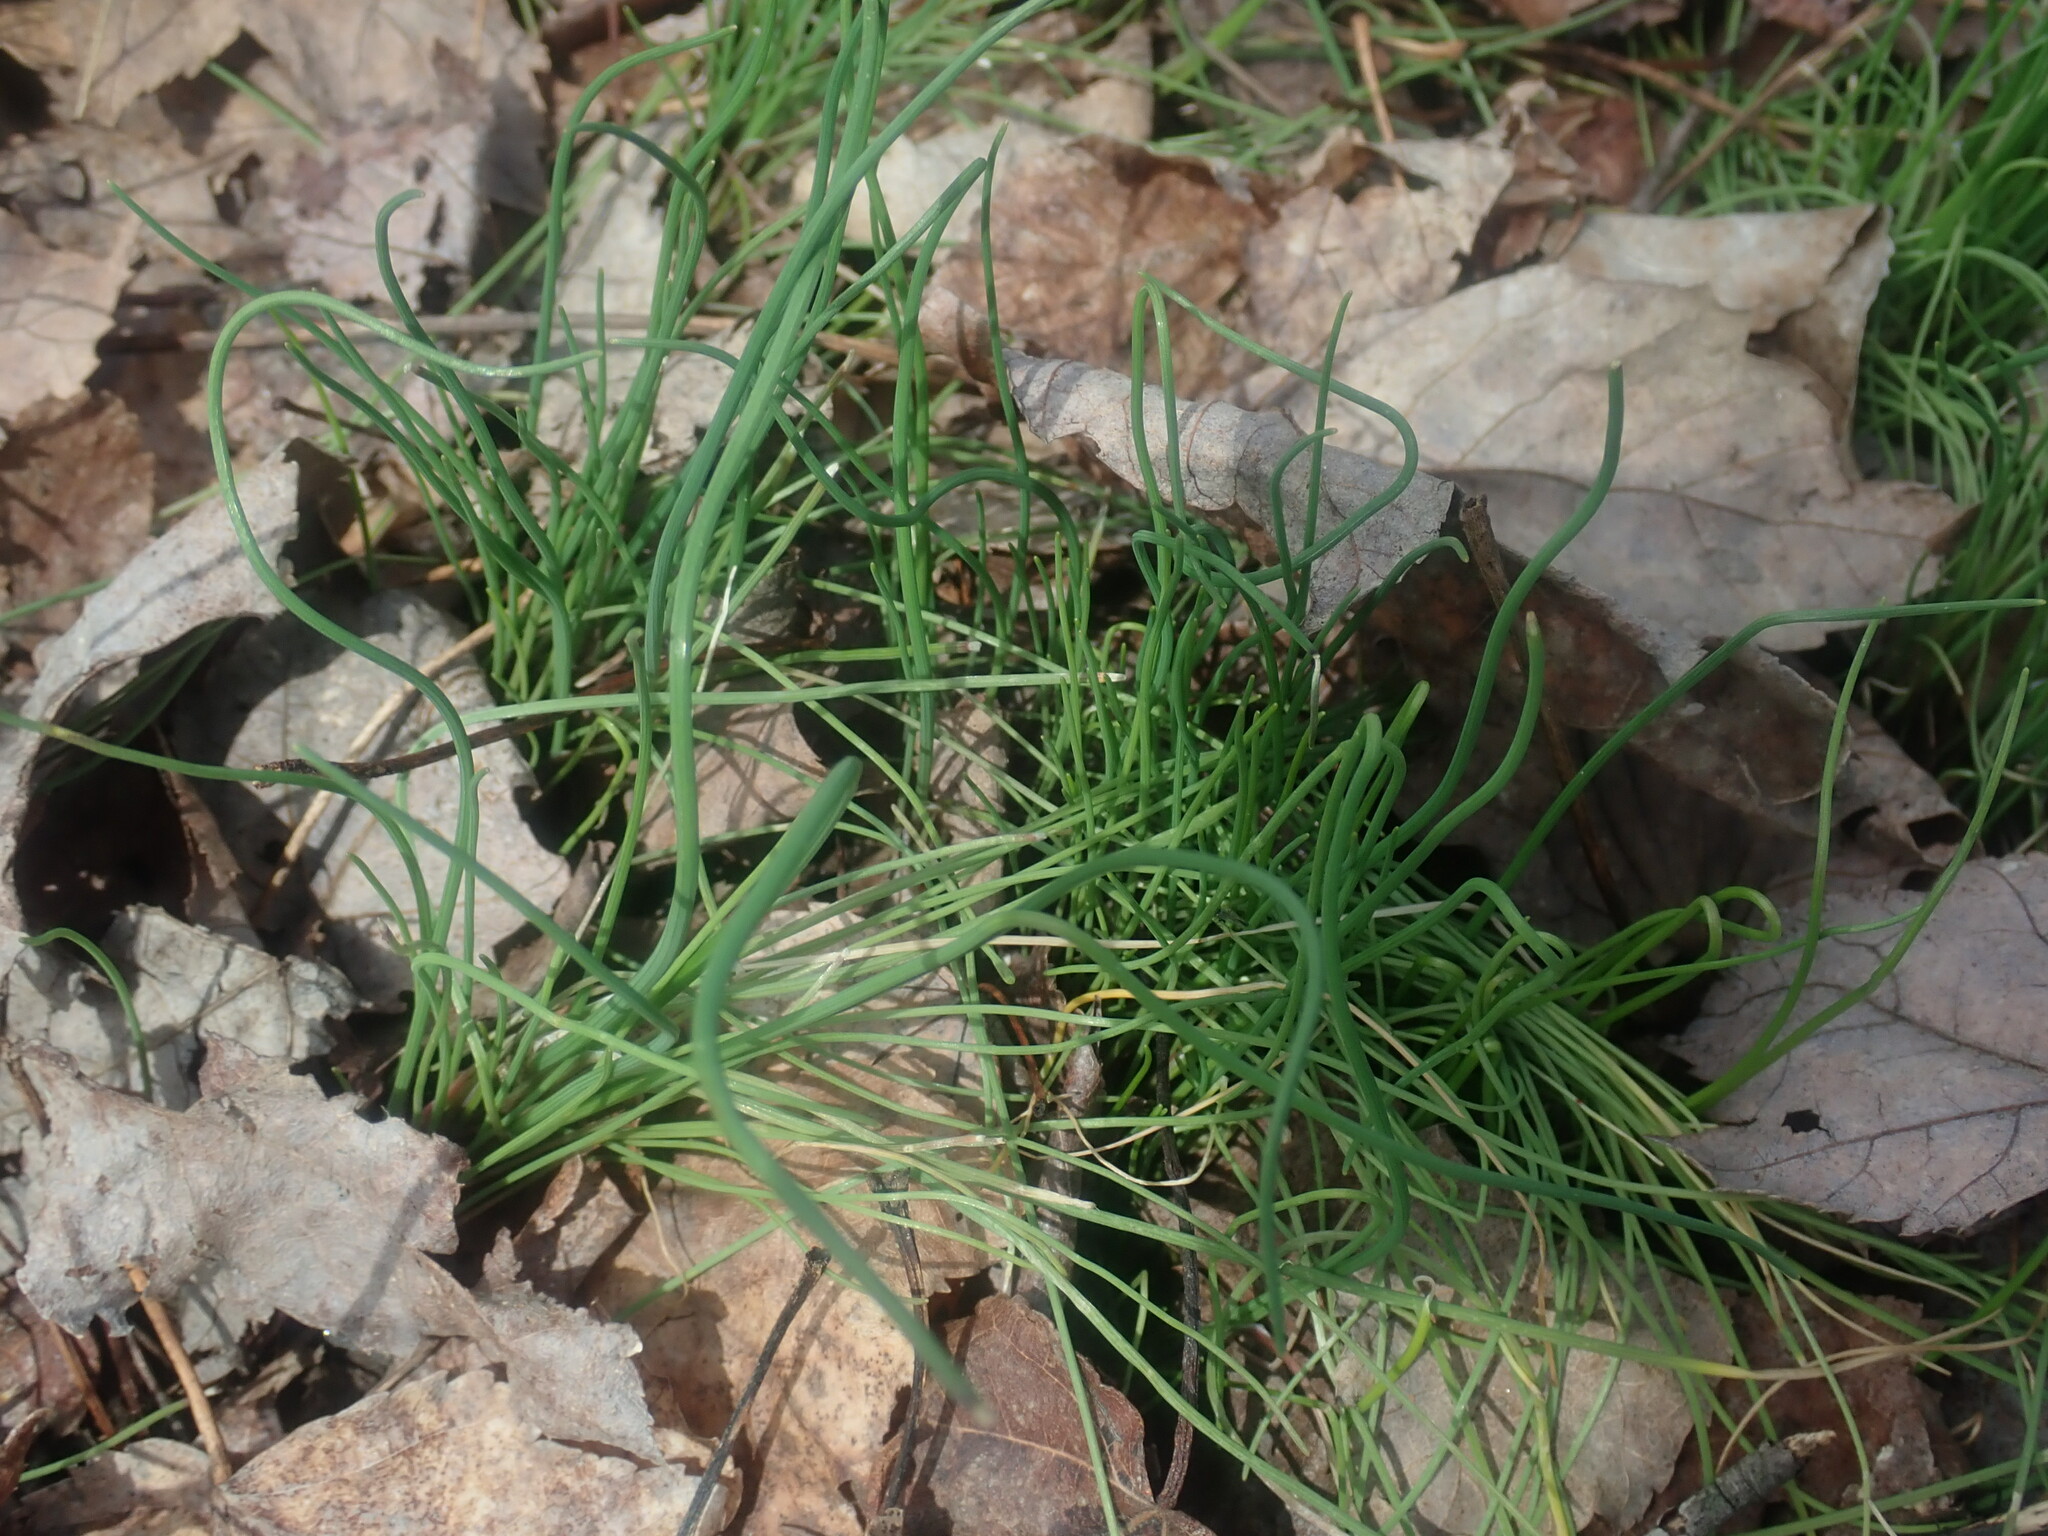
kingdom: Plantae
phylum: Tracheophyta
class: Liliopsida
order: Asparagales
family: Amaryllidaceae
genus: Allium
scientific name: Allium vineale
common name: Crow garlic
